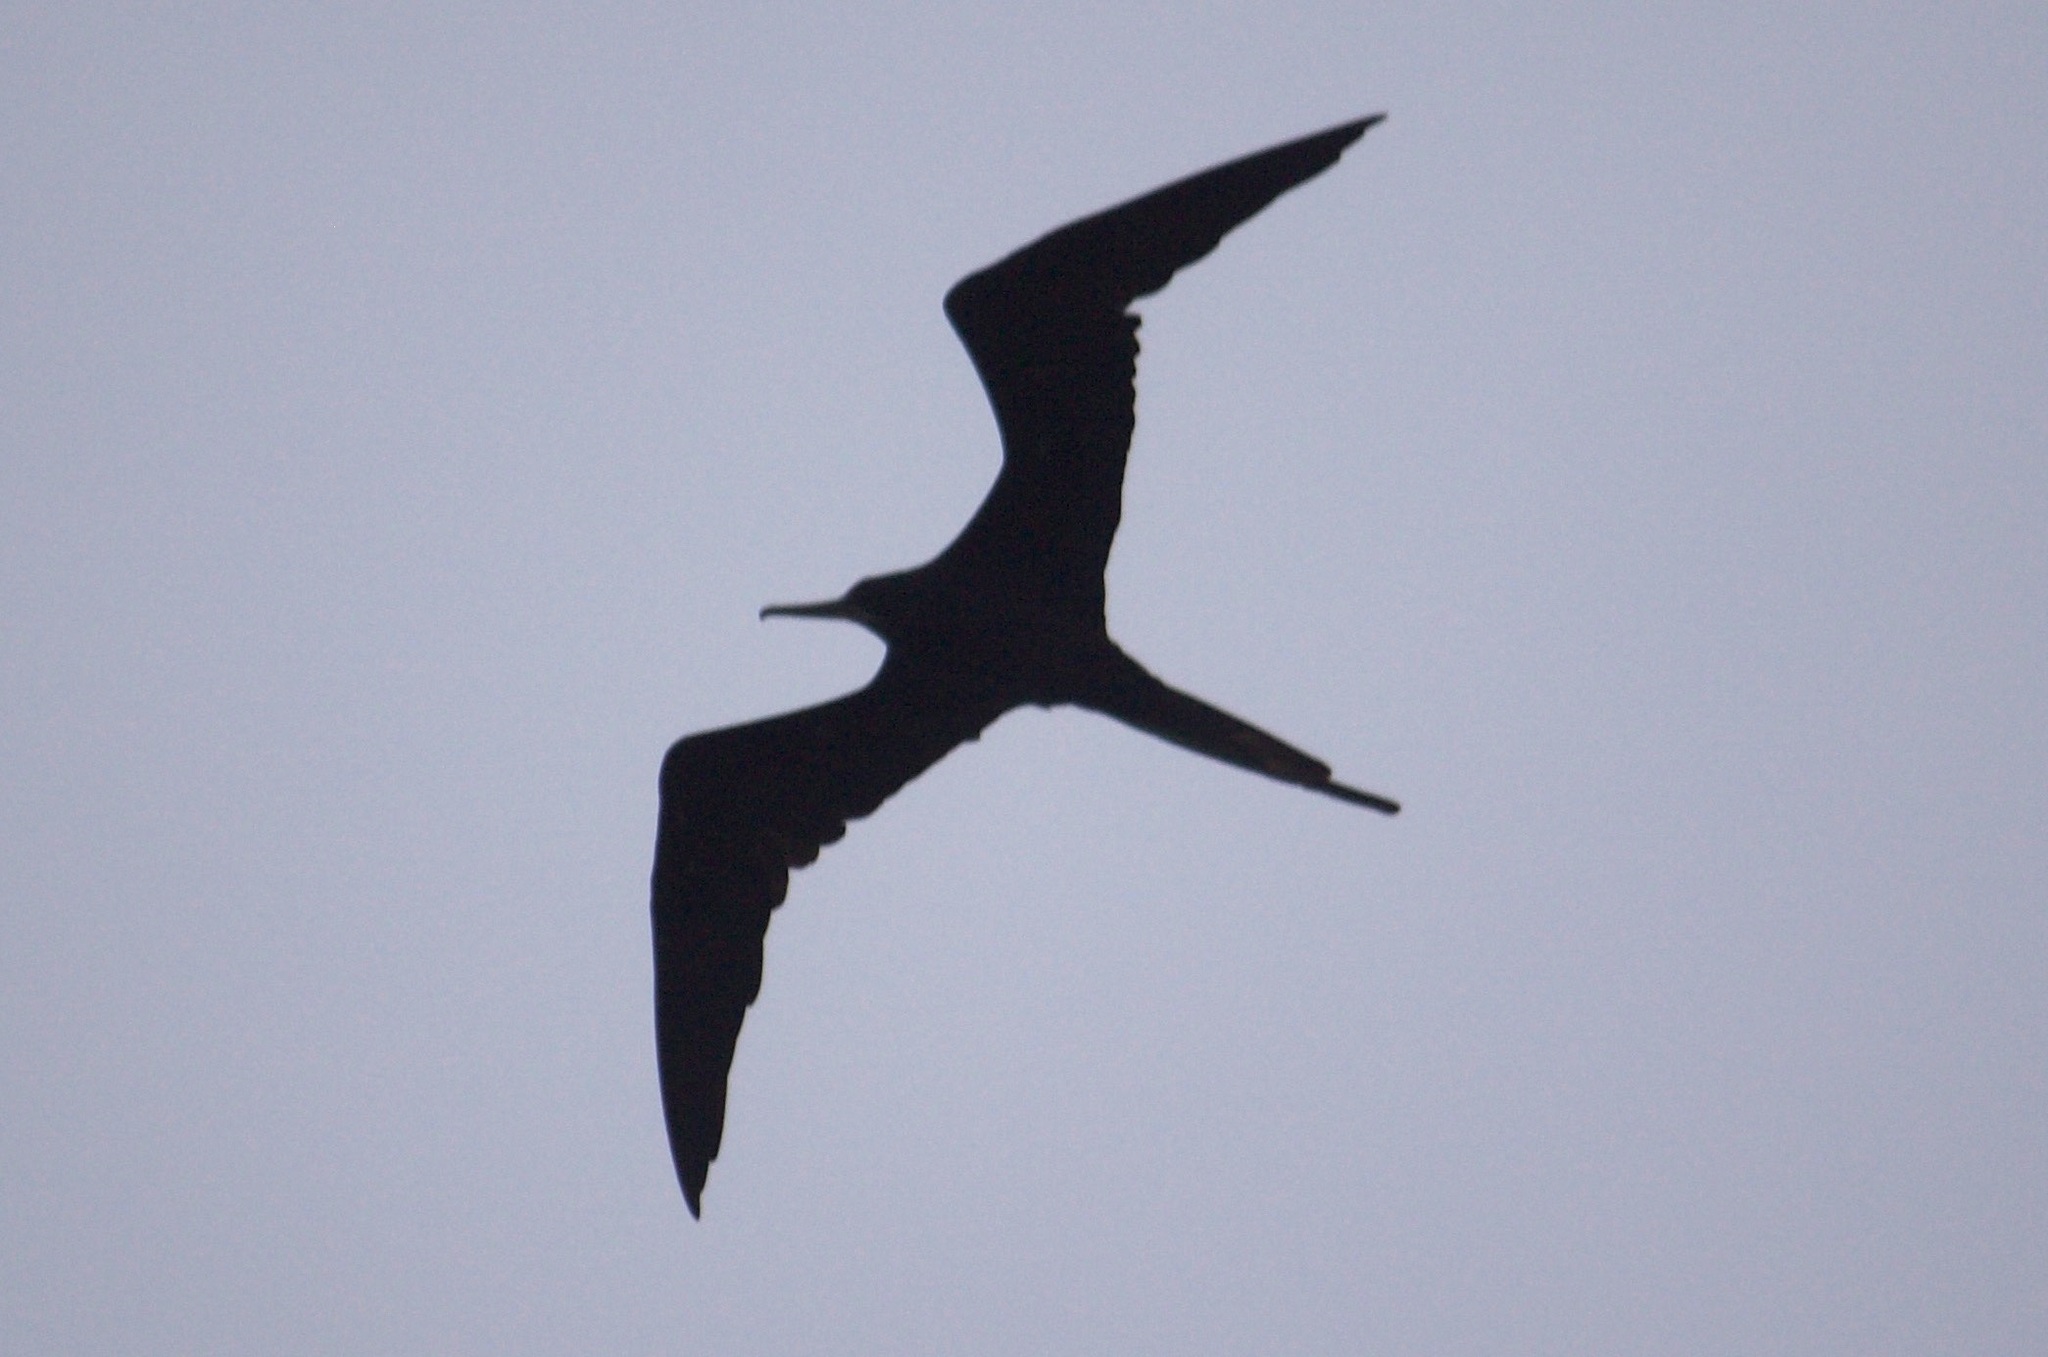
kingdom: Animalia
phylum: Chordata
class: Aves
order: Suliformes
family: Fregatidae
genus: Fregata
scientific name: Fregata magnificens
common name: Magnificent frigatebird
